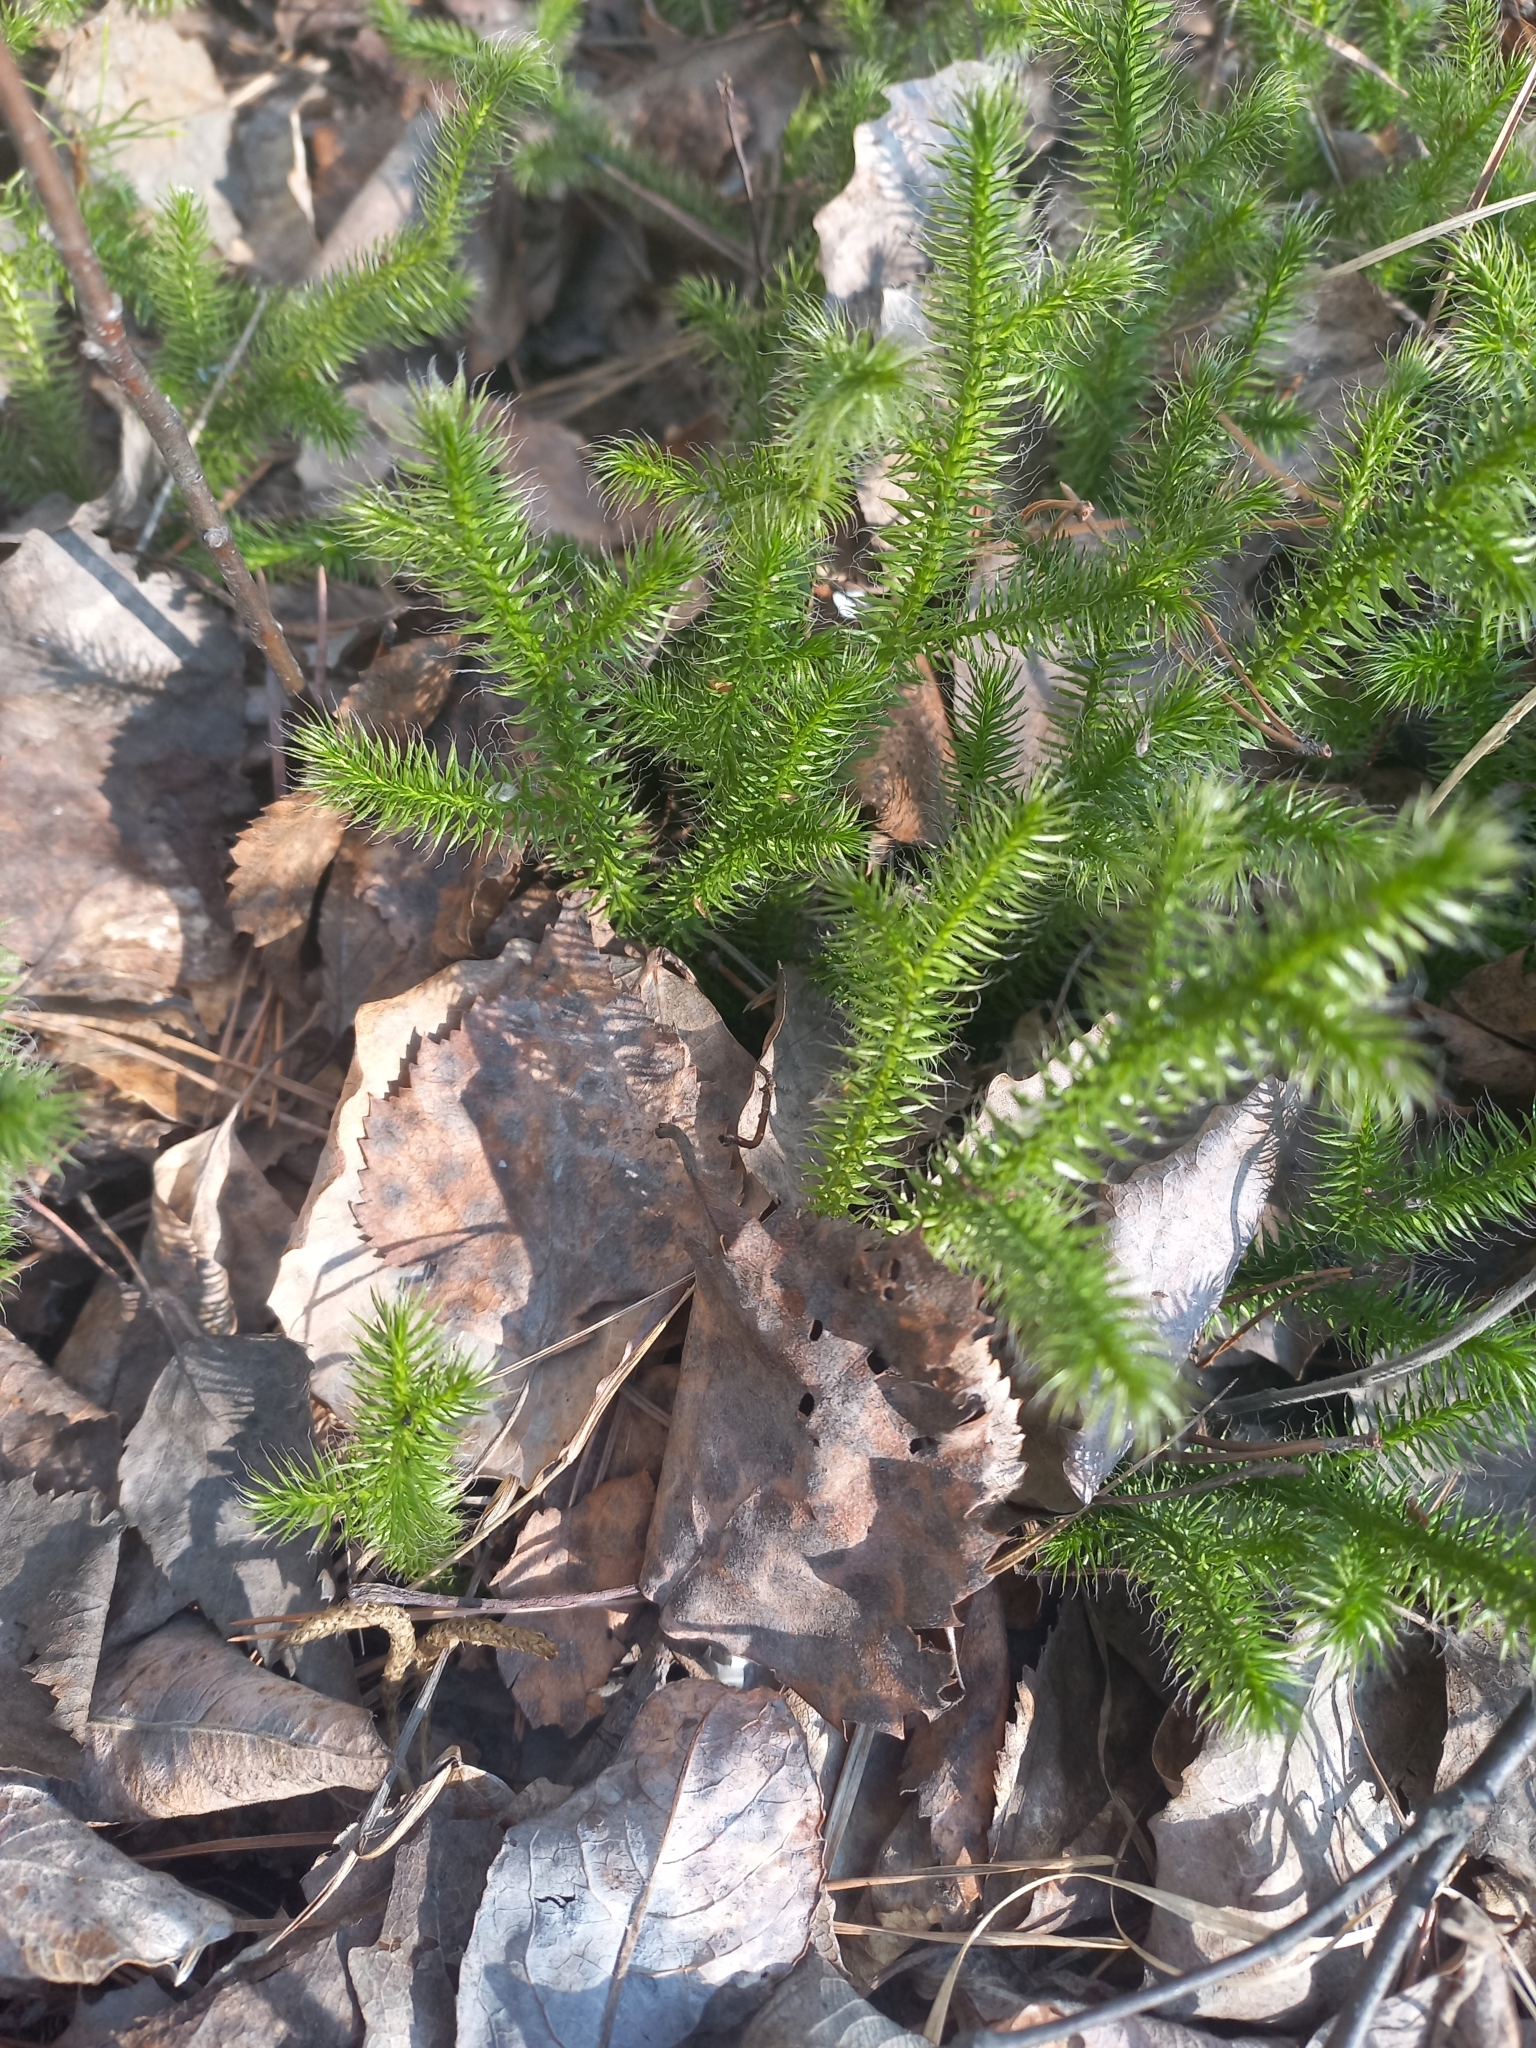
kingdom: Plantae
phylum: Tracheophyta
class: Lycopodiopsida
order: Lycopodiales
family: Lycopodiaceae
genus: Lycopodium
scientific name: Lycopodium clavatum
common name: Stag's-horn clubmoss
